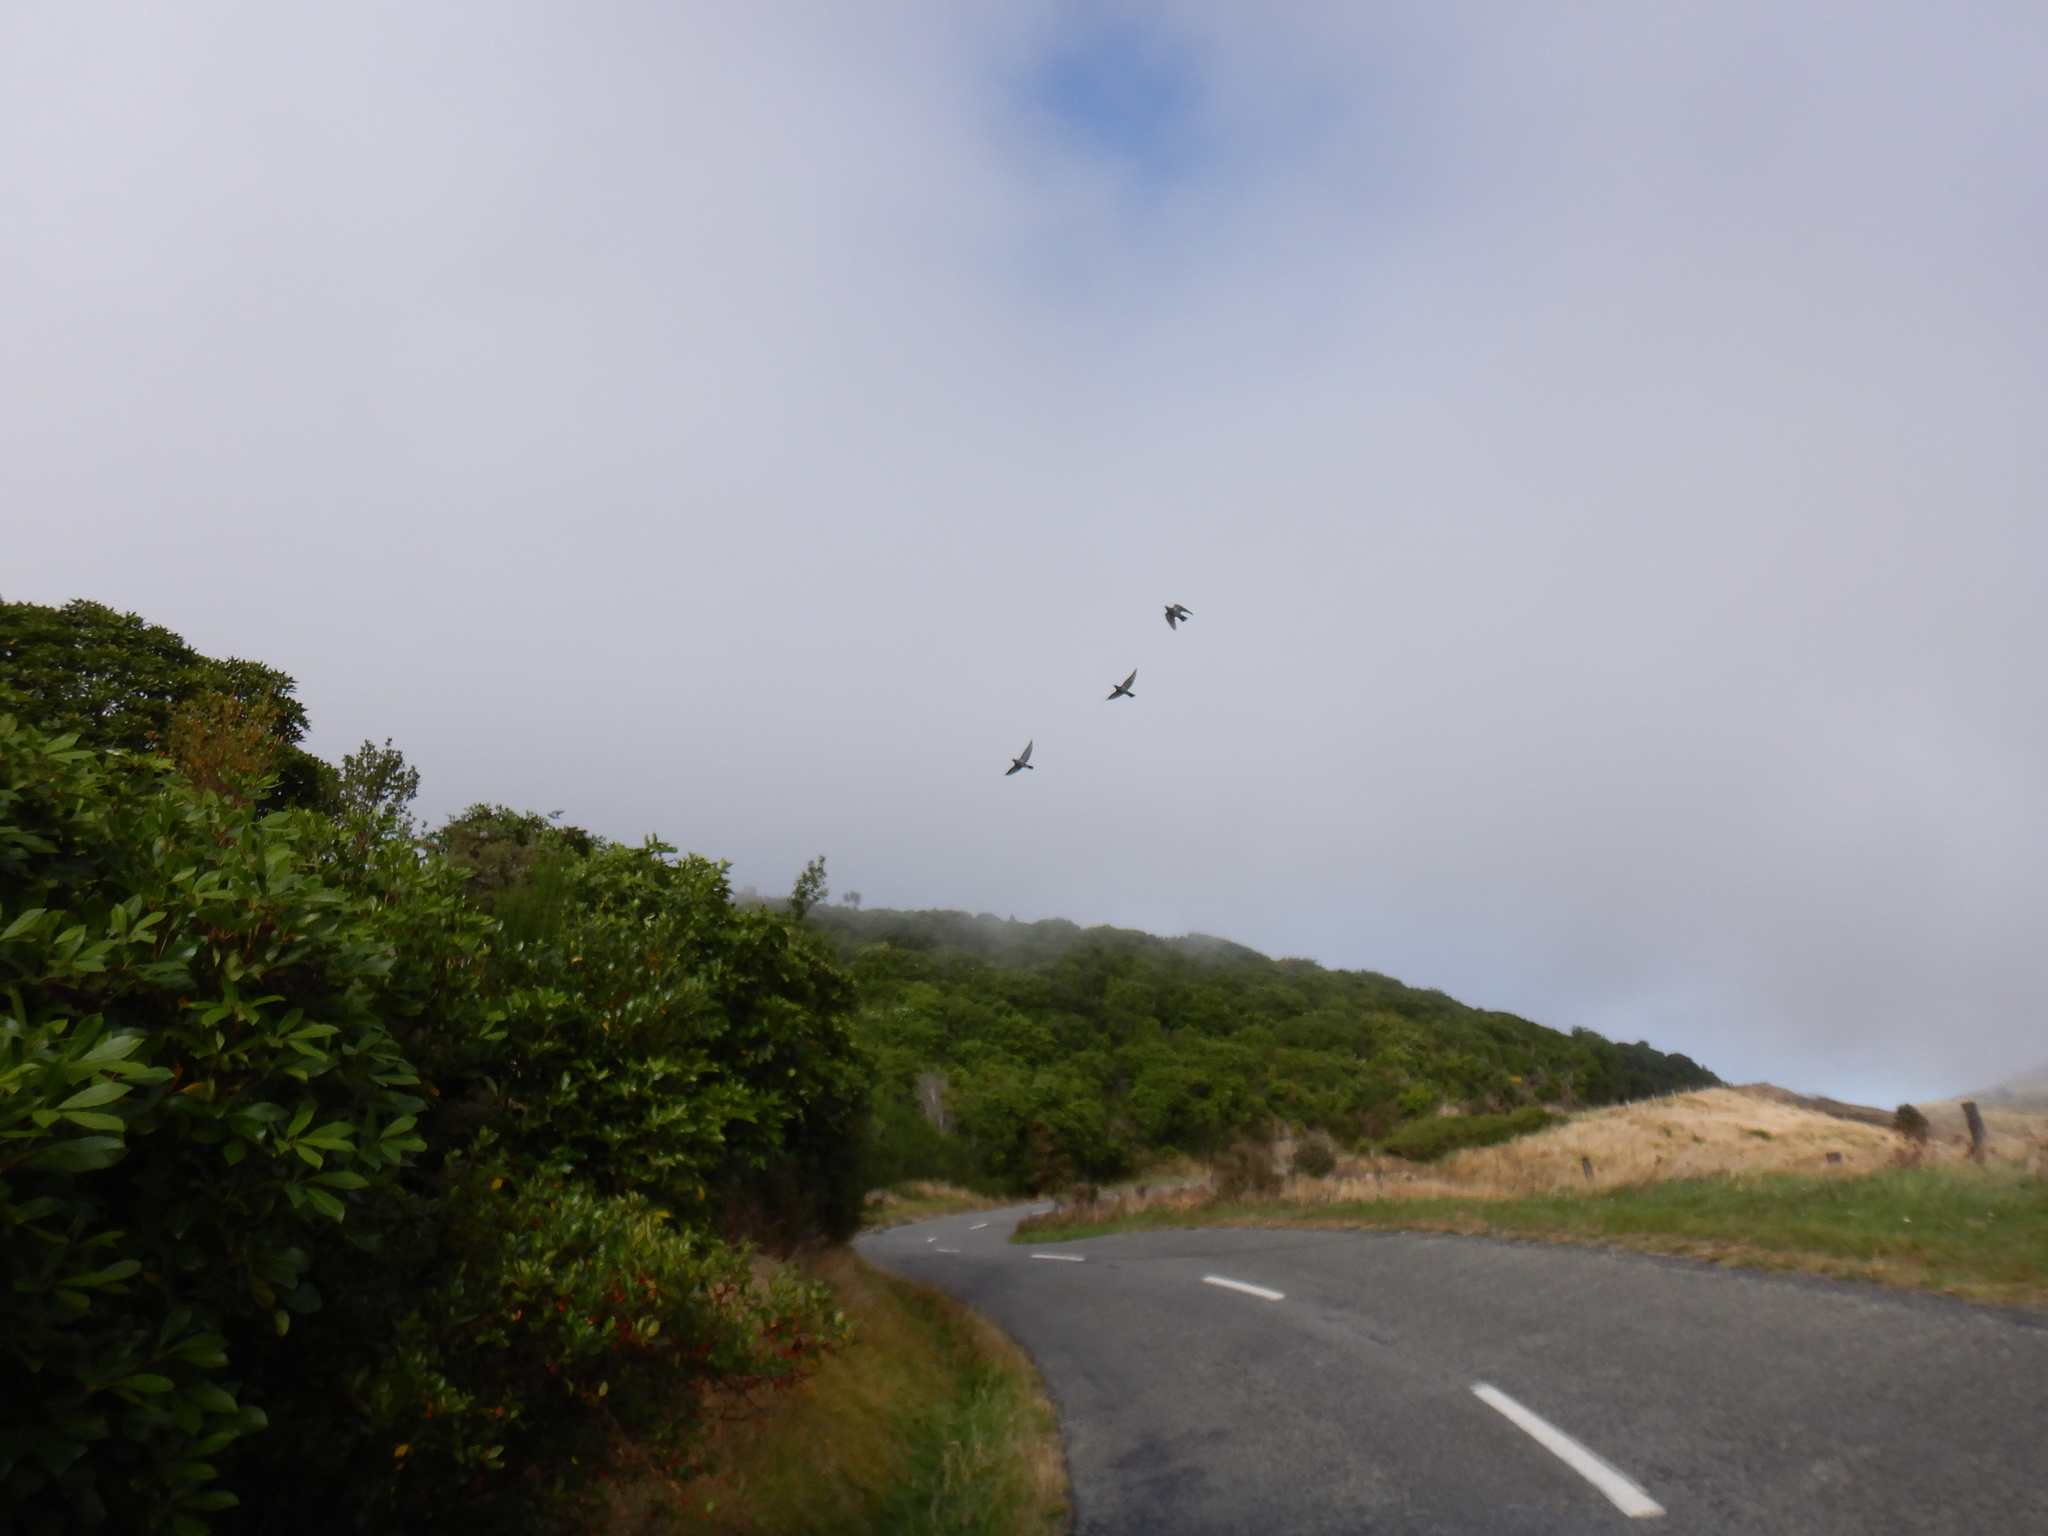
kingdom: Animalia
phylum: Chordata
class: Aves
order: Columbiformes
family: Columbidae
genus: Columba
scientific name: Columba livia
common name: Rock pigeon
